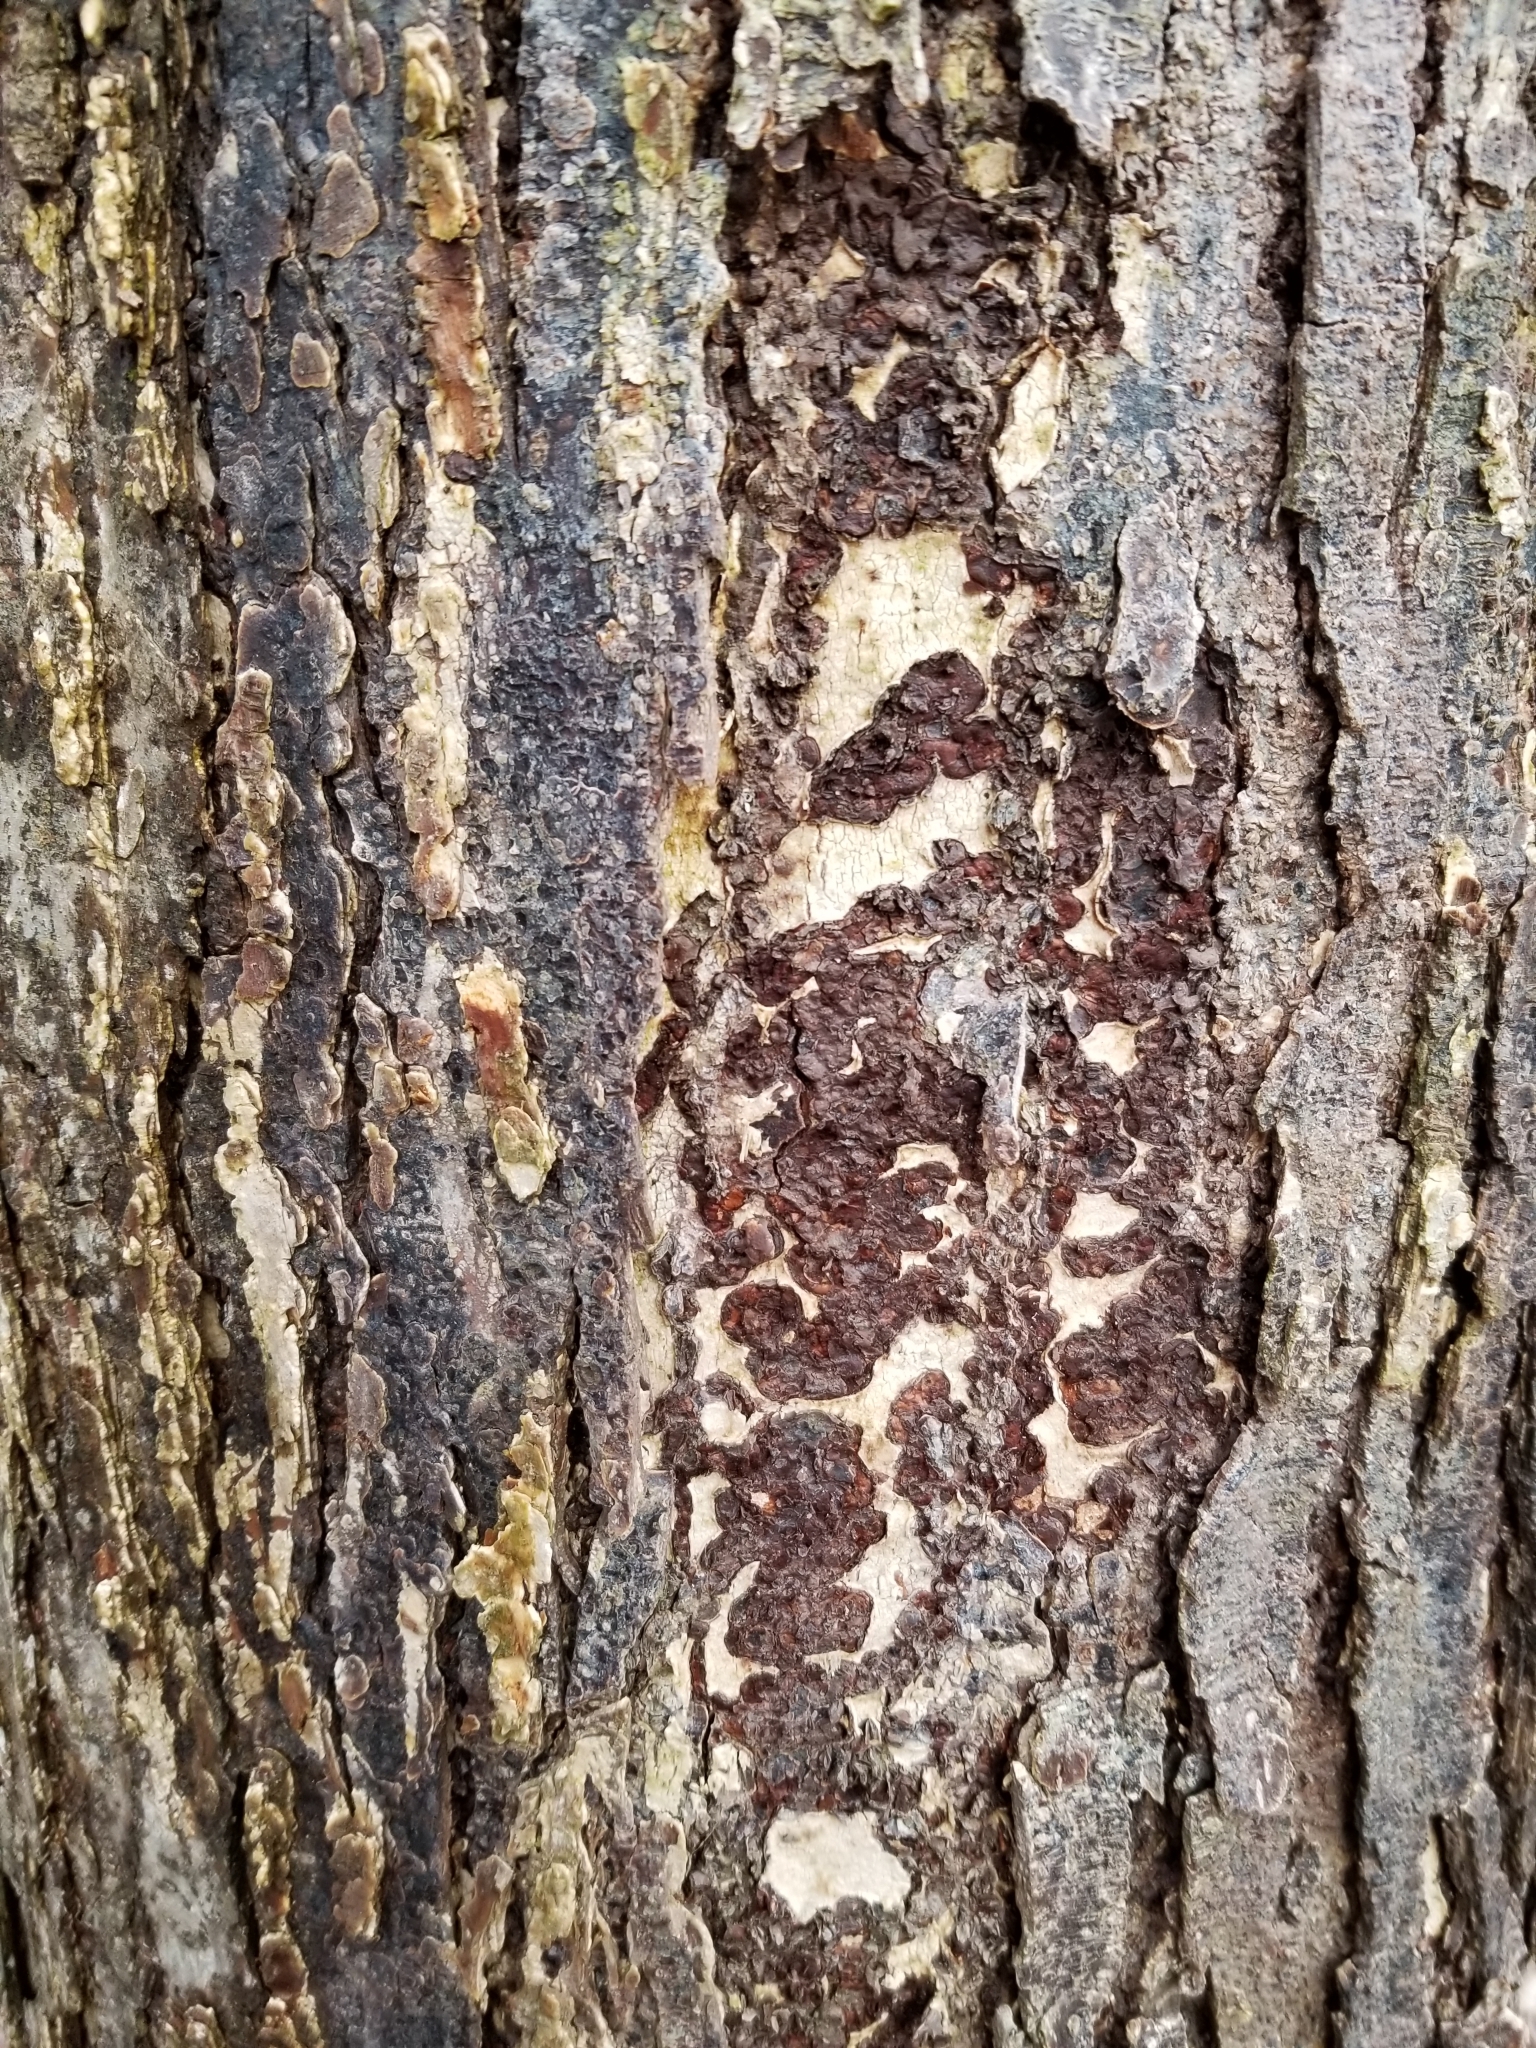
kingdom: Plantae
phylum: Tracheophyta
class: Magnoliopsida
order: Rosales
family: Ulmaceae
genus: Ulmus
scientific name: Ulmus americana
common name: American elm
